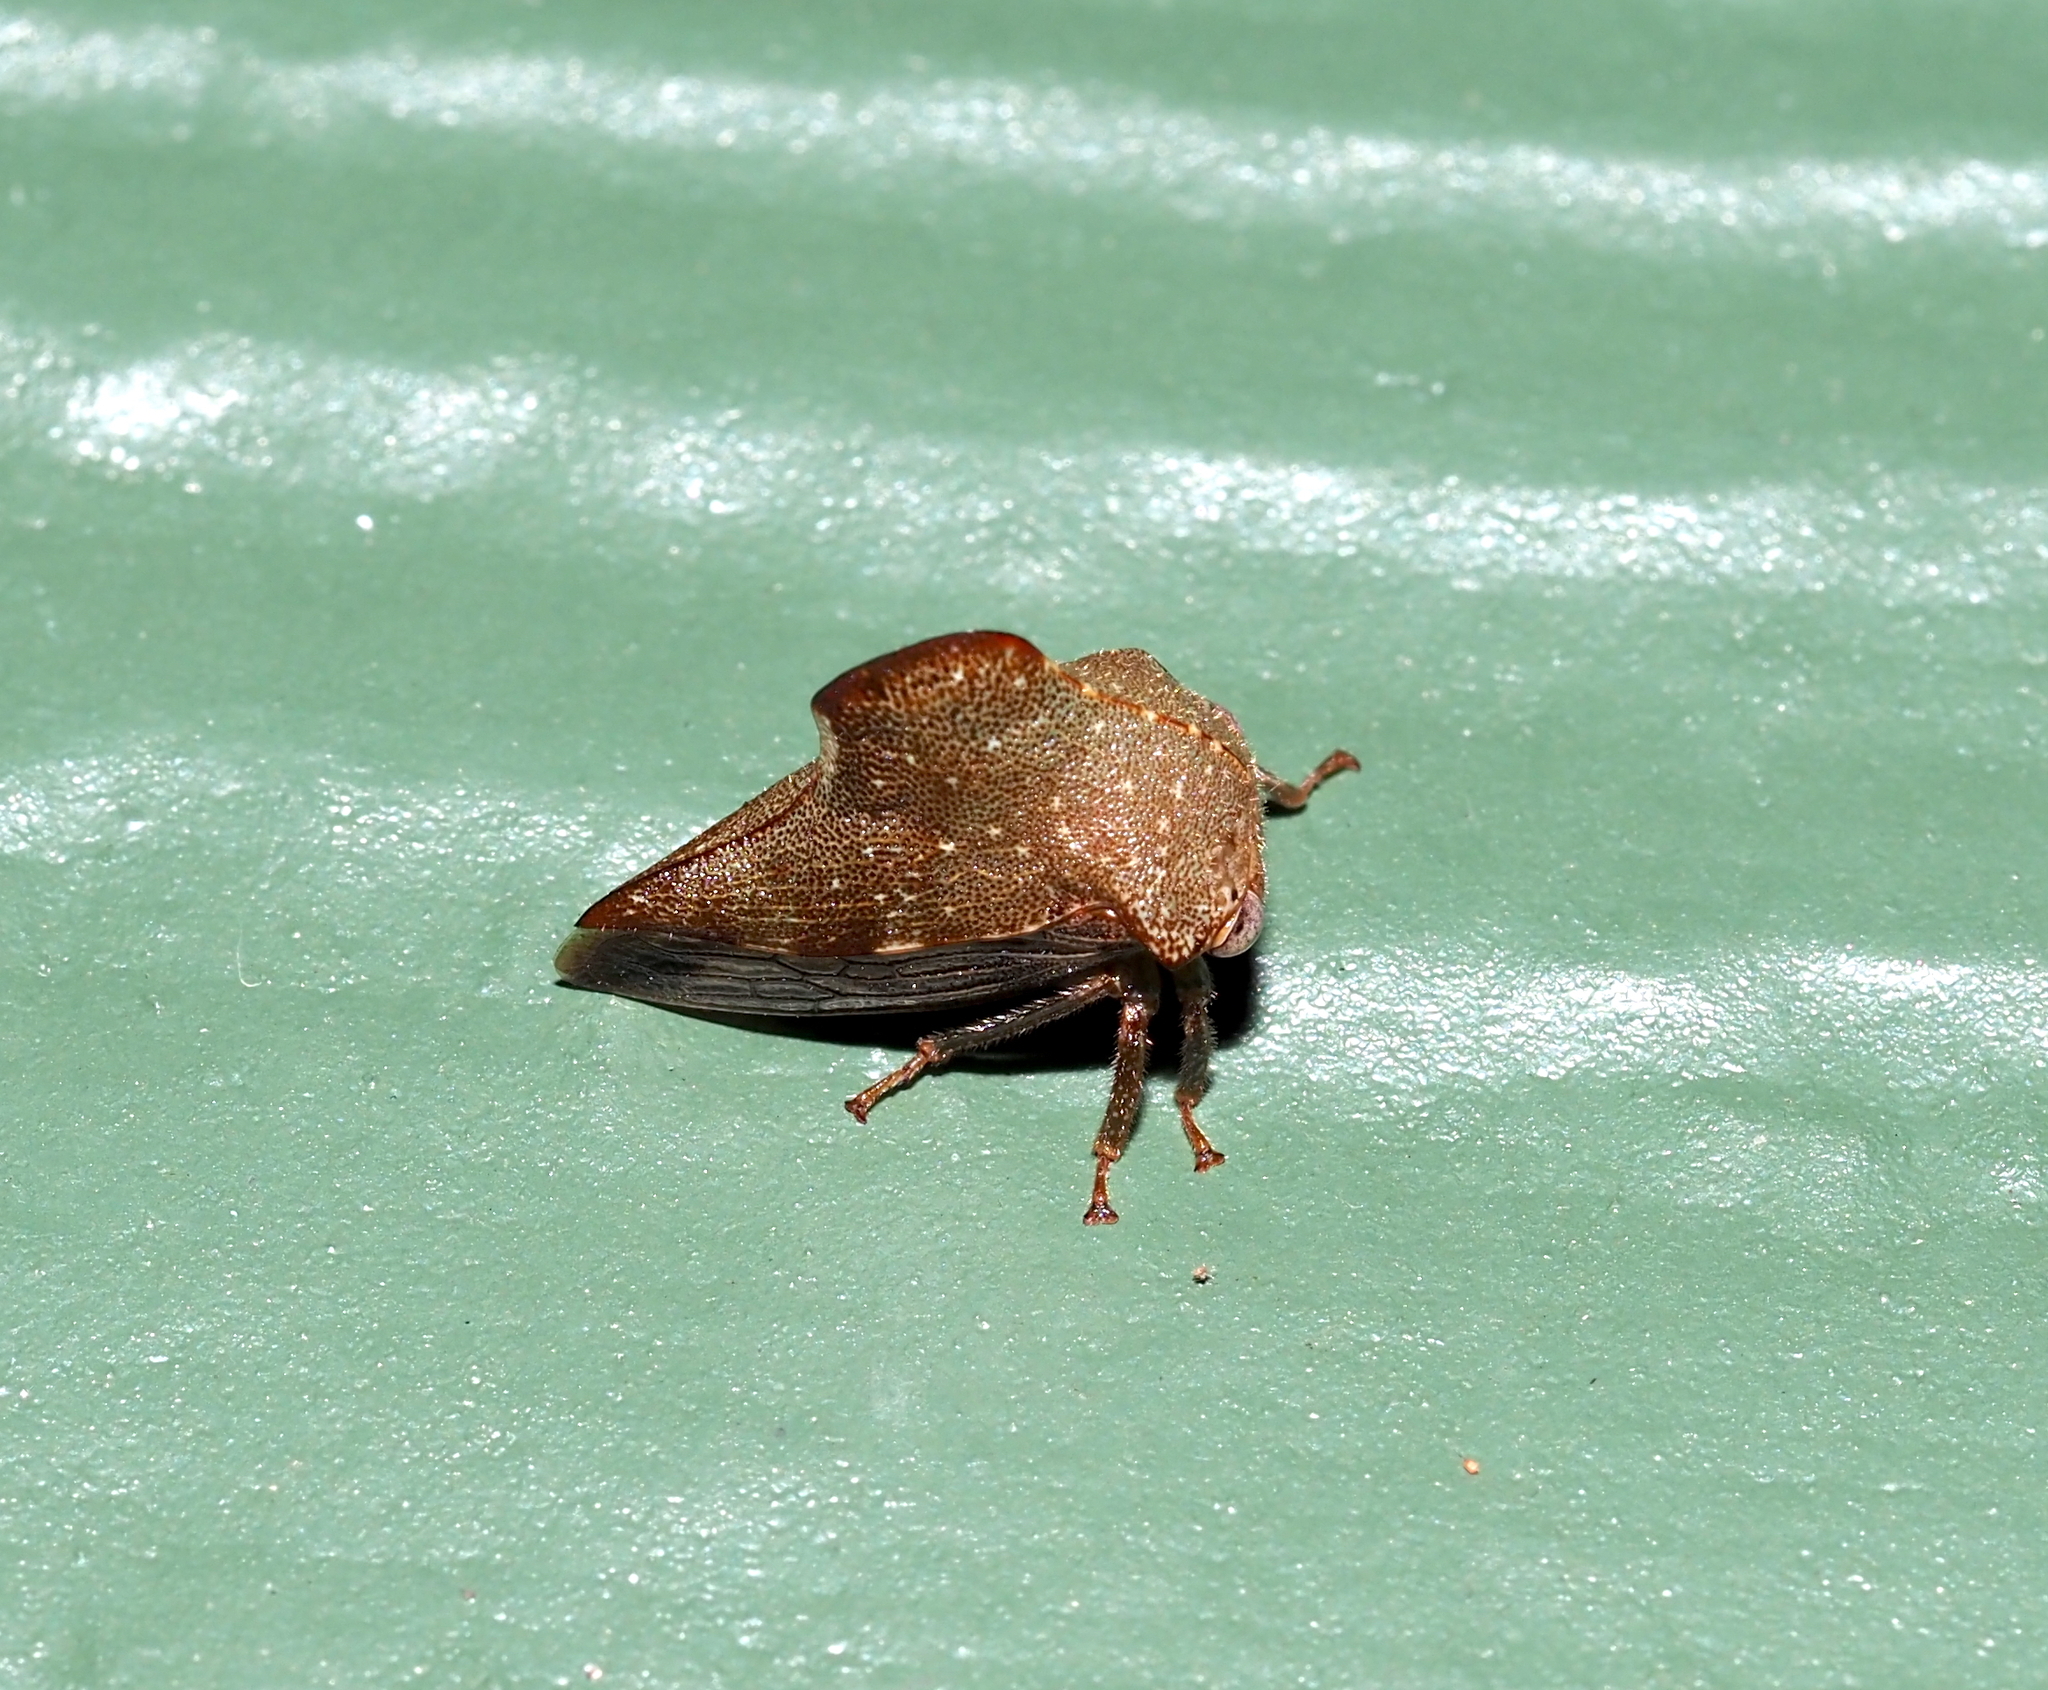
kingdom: Animalia
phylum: Arthropoda
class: Insecta
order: Hemiptera
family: Membracidae
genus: Telamona
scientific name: Telamona monticola
